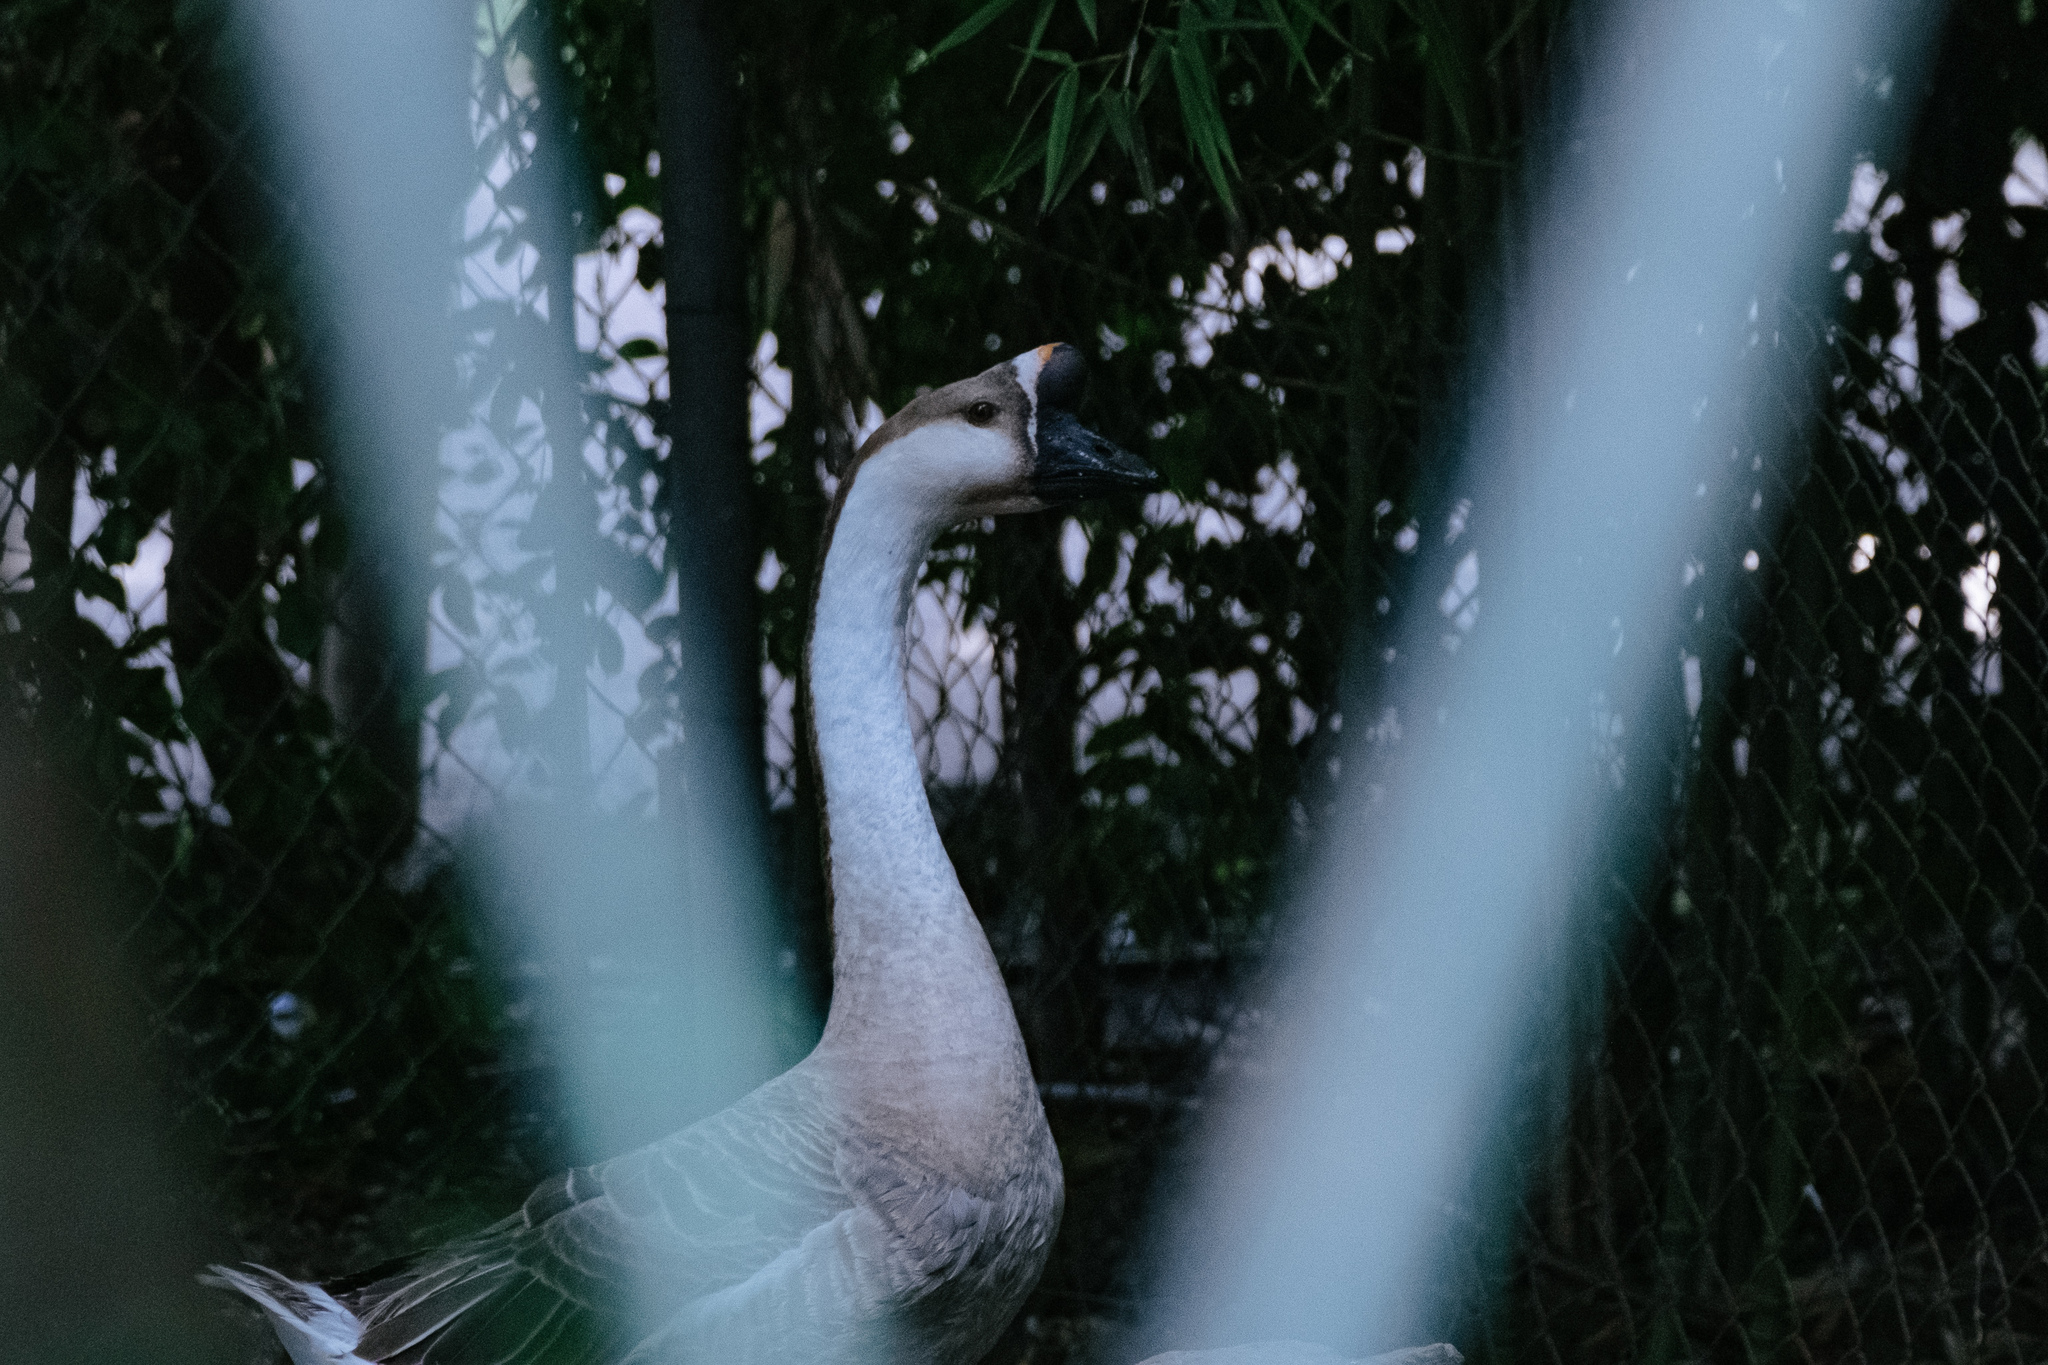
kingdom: Animalia
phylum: Chordata
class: Aves
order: Anseriformes
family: Anatidae
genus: Anser
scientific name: Anser cygnoides
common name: Swan goose
